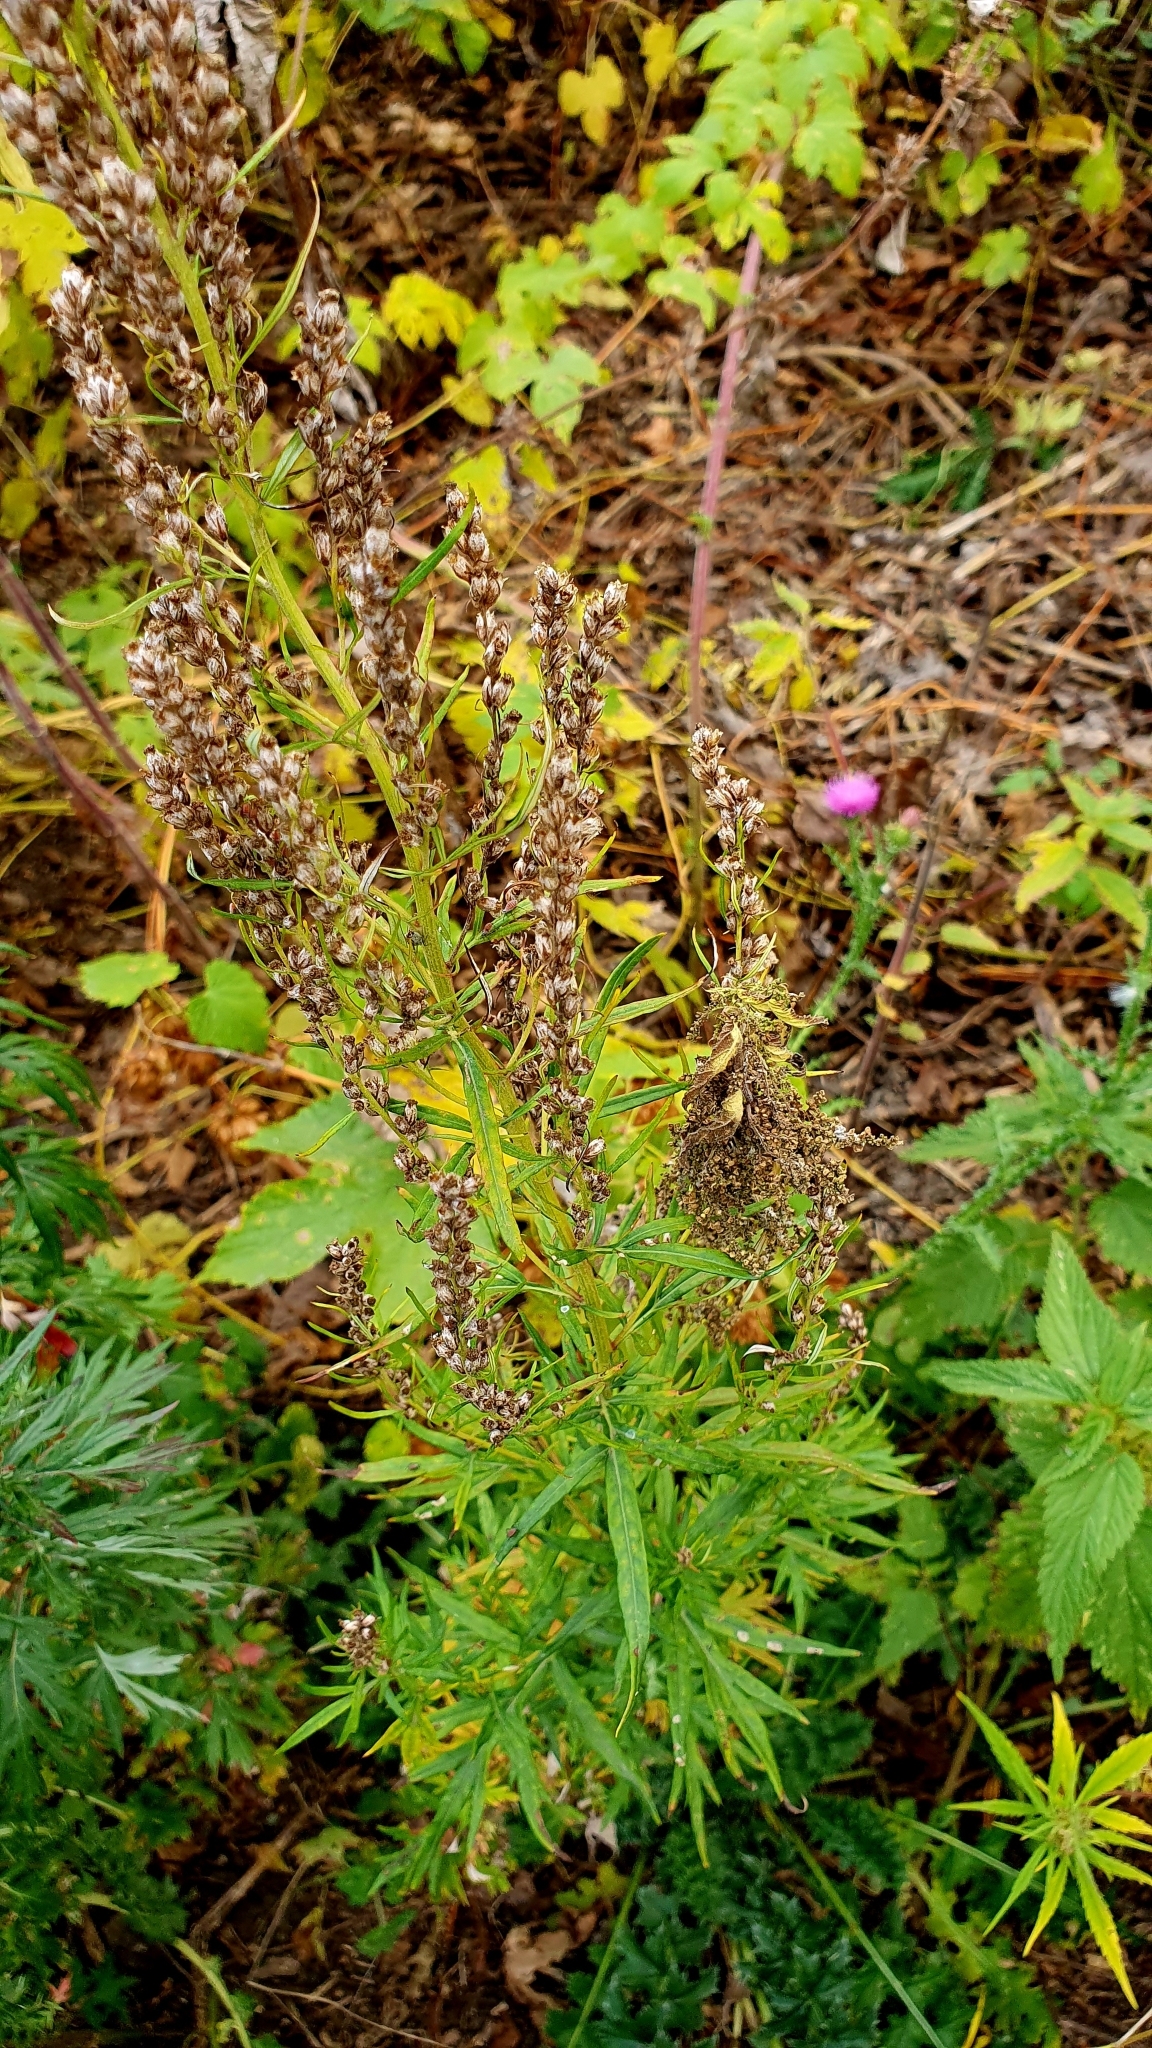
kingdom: Plantae
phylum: Tracheophyta
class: Magnoliopsida
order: Asterales
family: Asteraceae
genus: Artemisia
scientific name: Artemisia vulgaris
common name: Mugwort
